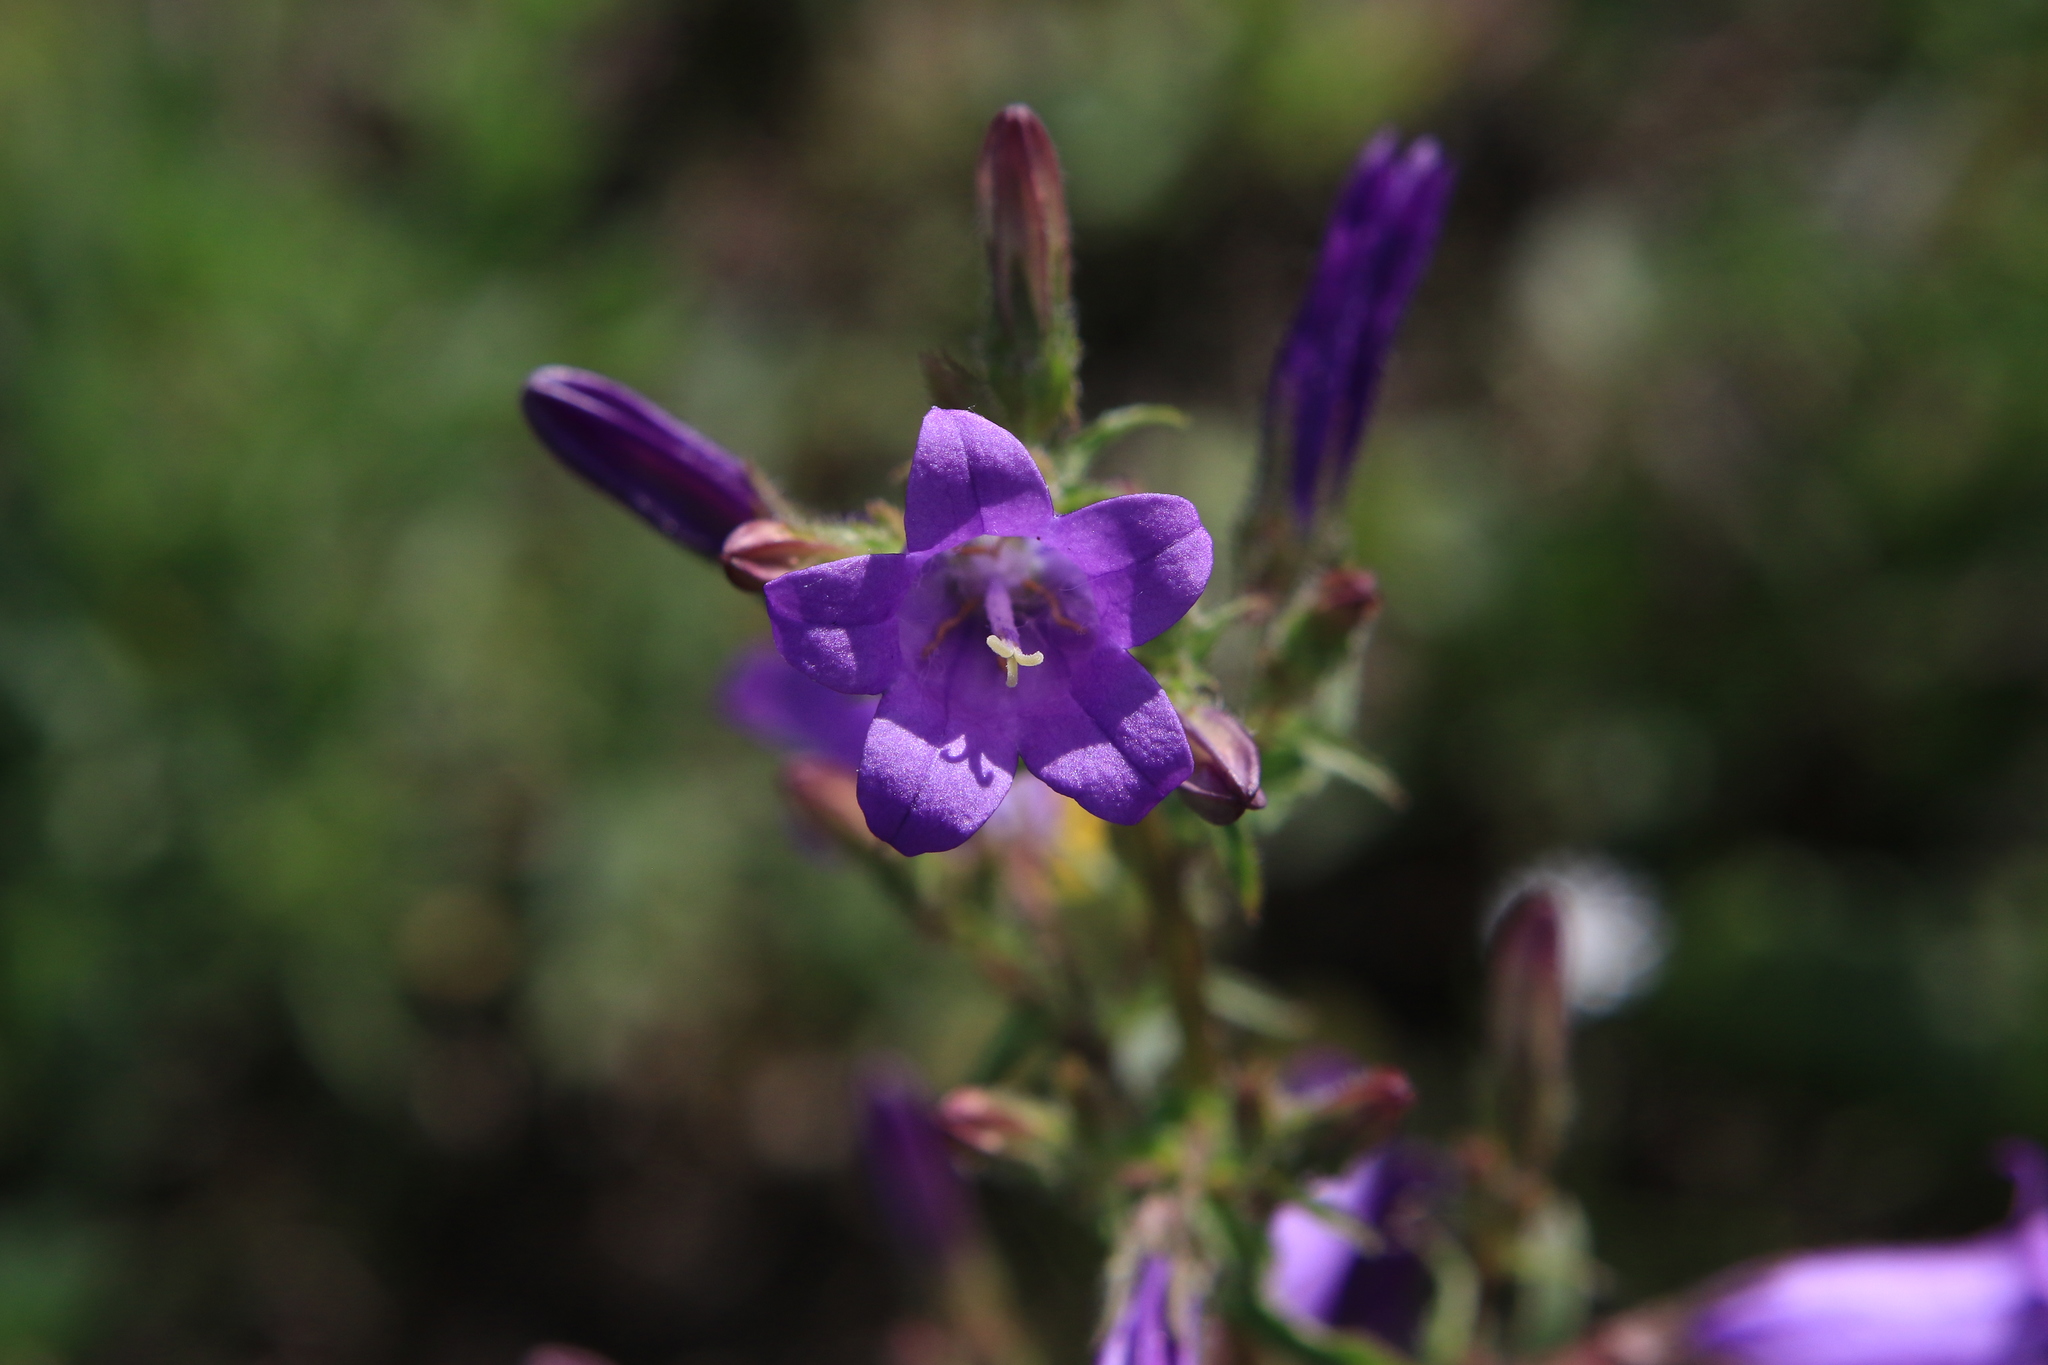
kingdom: Plantae
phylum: Tracheophyta
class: Magnoliopsida
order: Asterales
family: Campanulaceae
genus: Campanula
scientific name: Campanula sibirica
